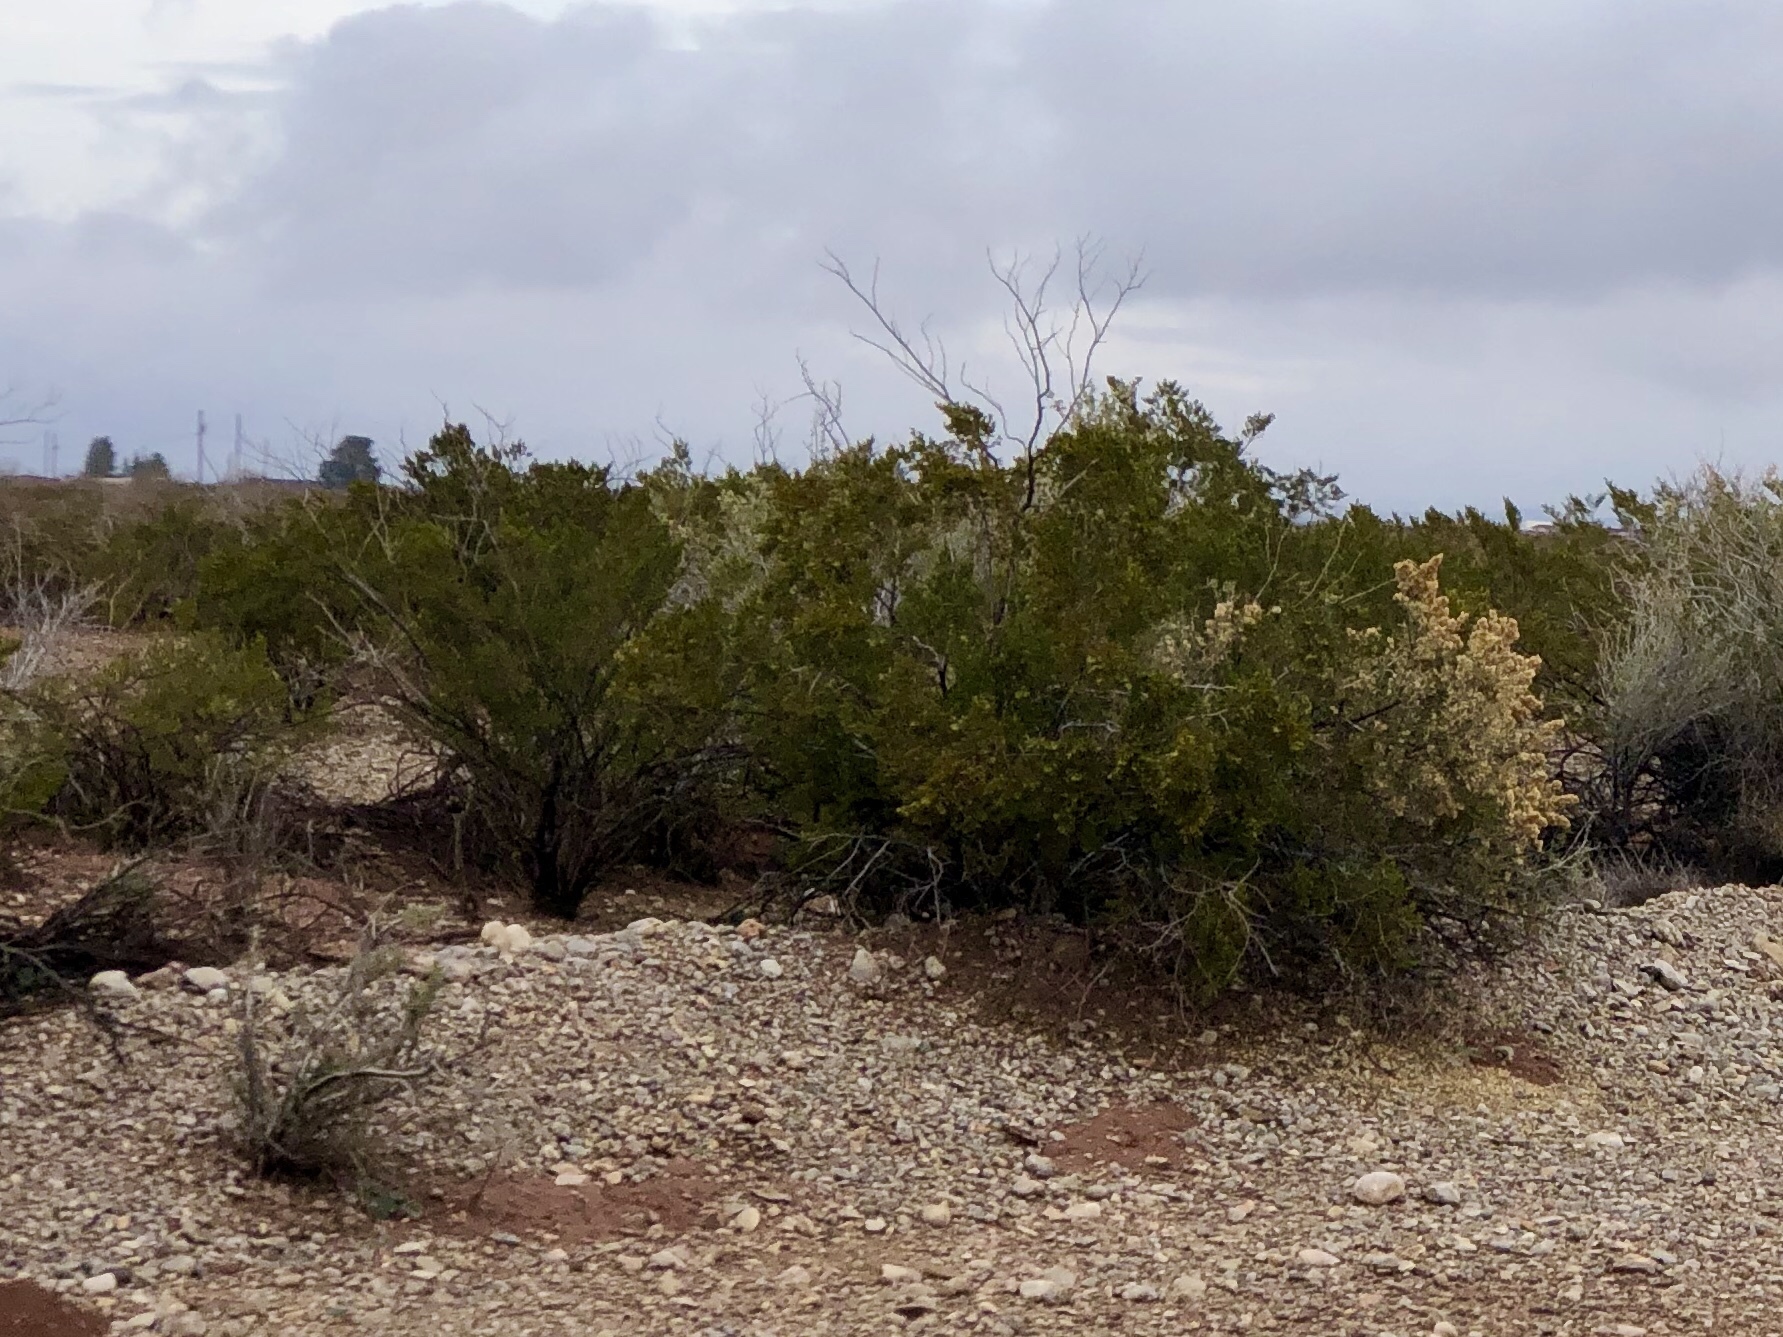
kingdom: Plantae
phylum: Tracheophyta
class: Magnoliopsida
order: Zygophyllales
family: Zygophyllaceae
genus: Larrea
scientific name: Larrea tridentata
